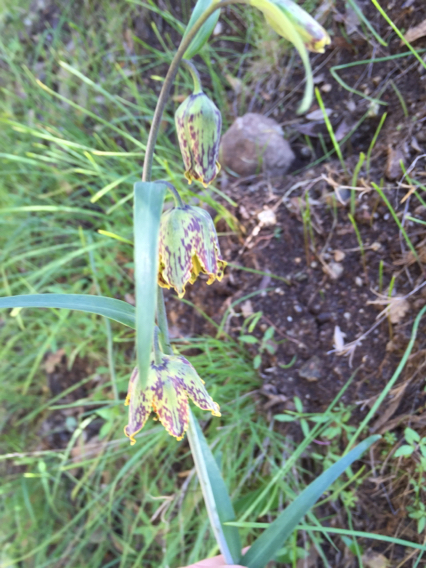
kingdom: Plantae
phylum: Tracheophyta
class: Liliopsida
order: Liliales
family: Liliaceae
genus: Fritillaria
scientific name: Fritillaria affinis
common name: Ojai fritillary
